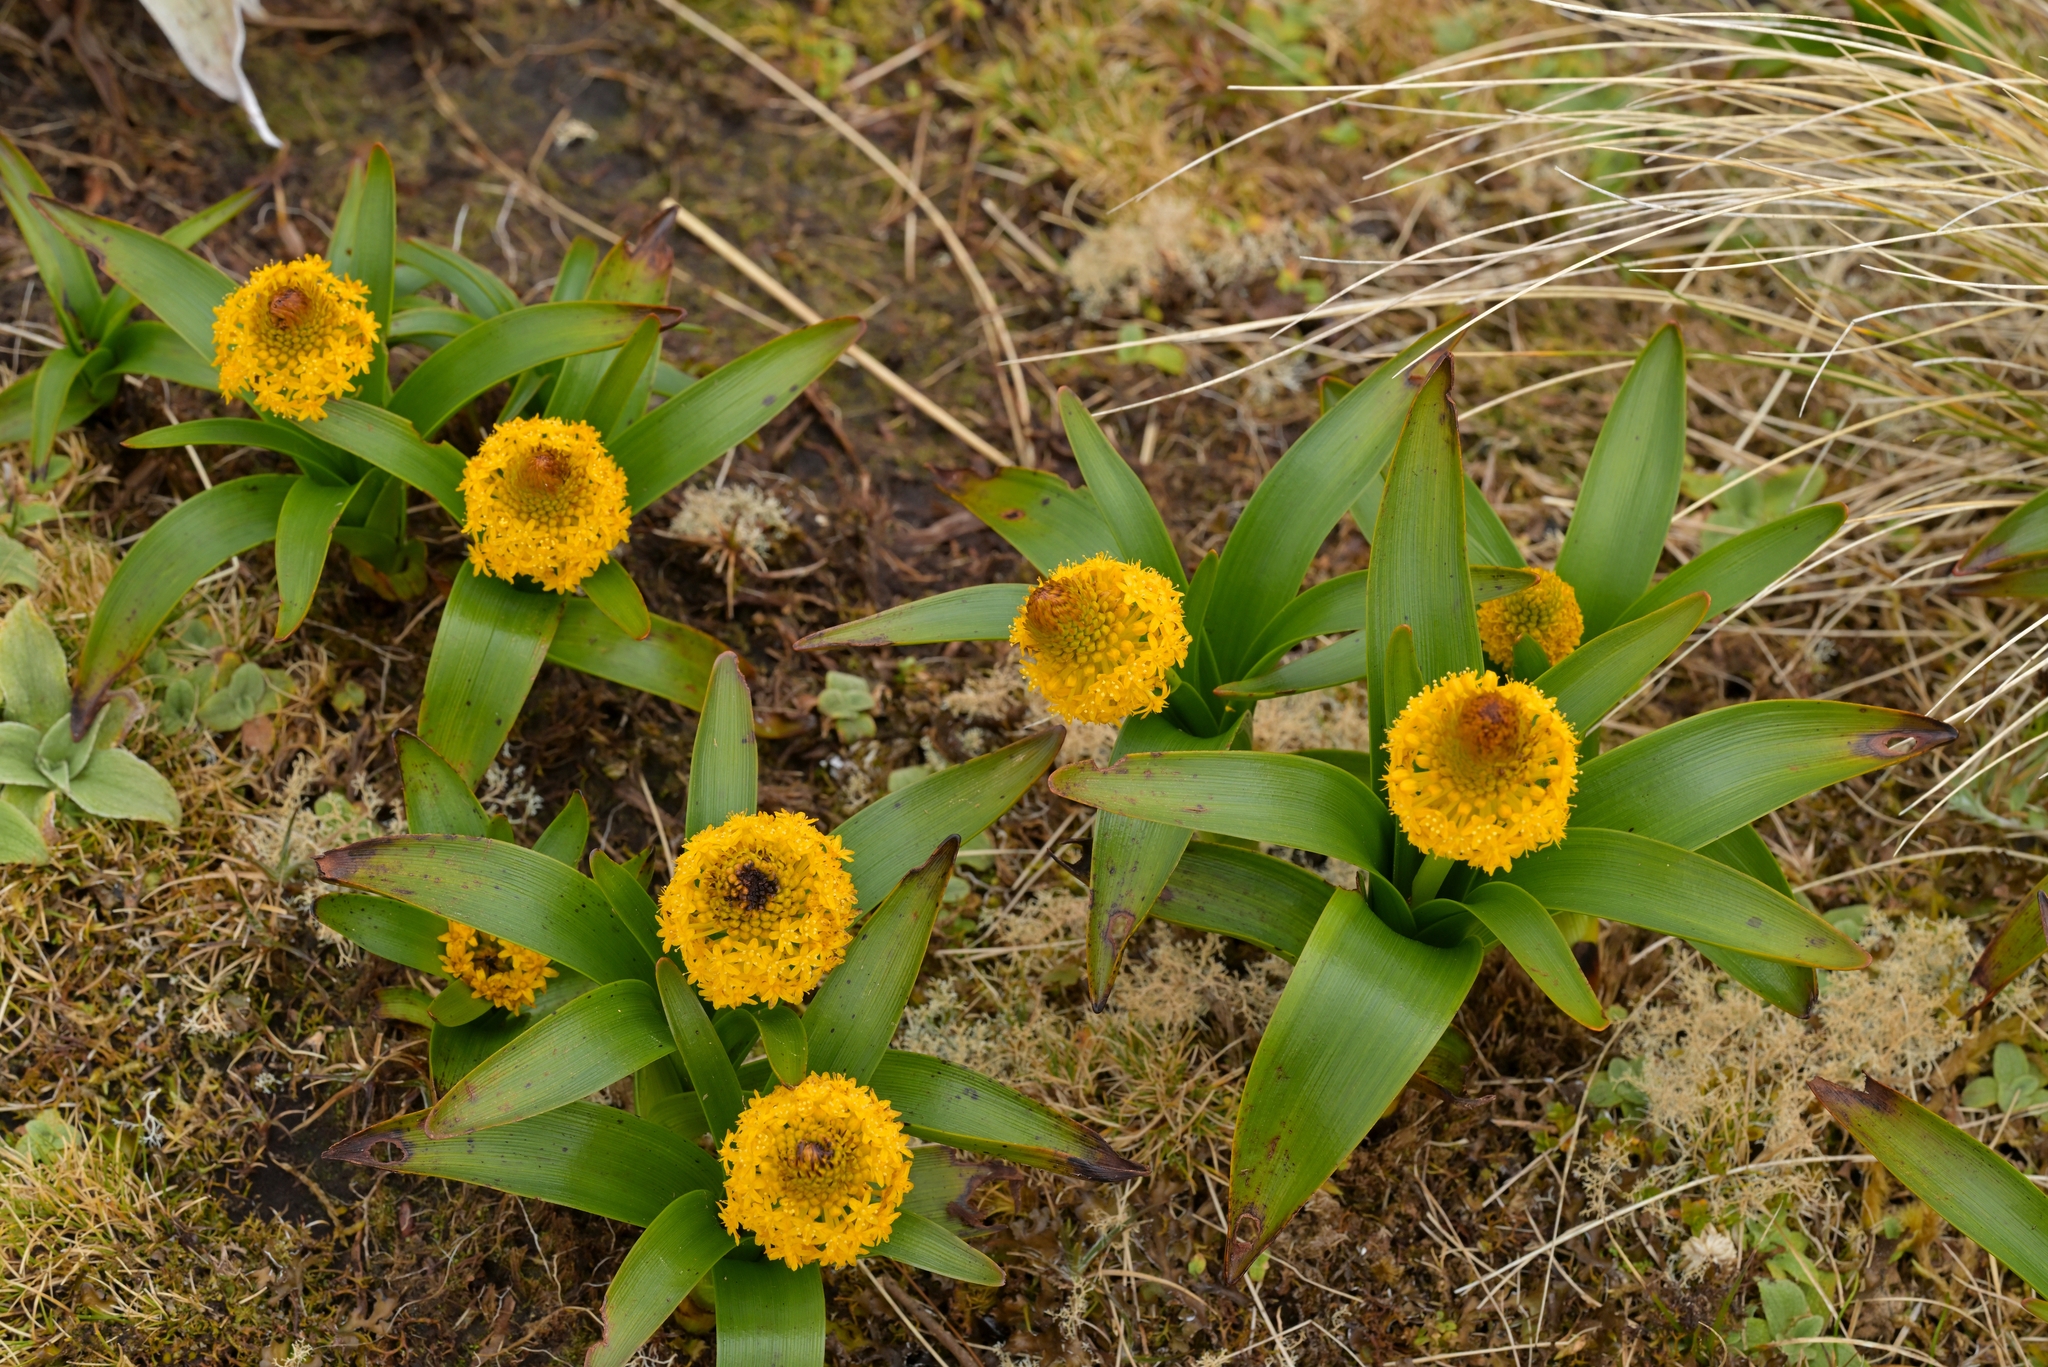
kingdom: Plantae
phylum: Tracheophyta
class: Liliopsida
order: Asparagales
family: Asphodelaceae
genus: Bulbinella
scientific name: Bulbinella rossii
